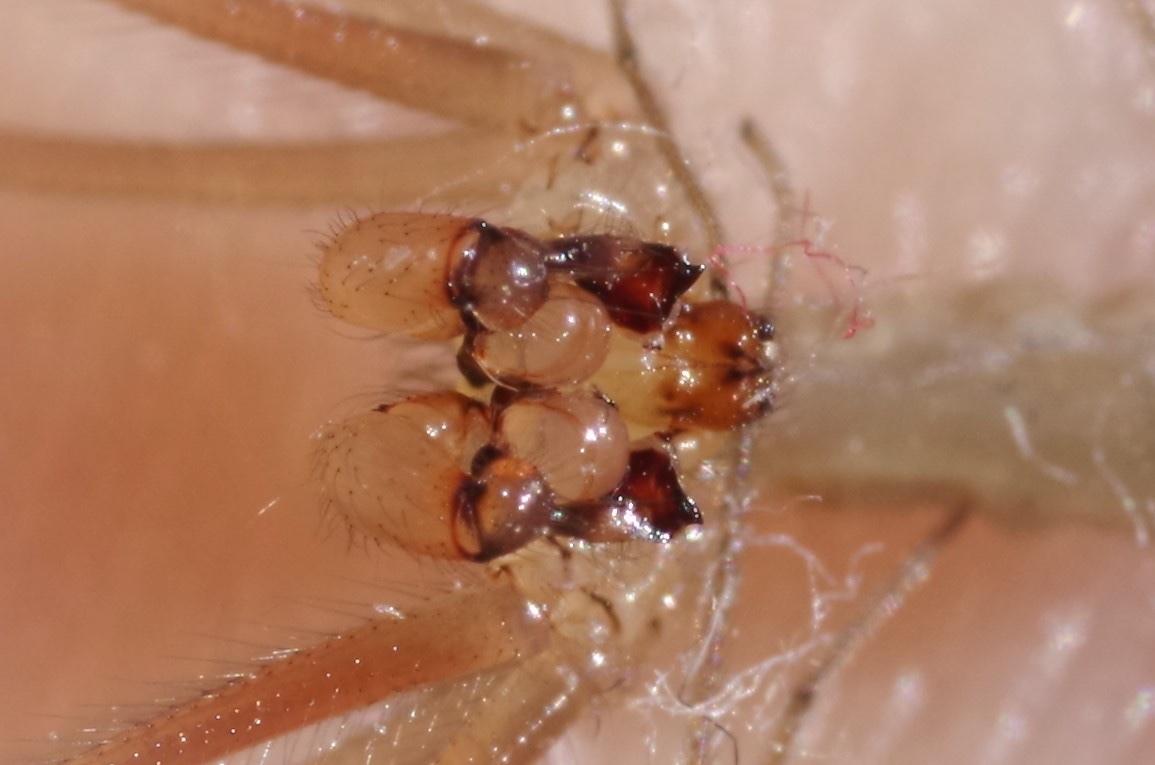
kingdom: Animalia
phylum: Arthropoda
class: Arachnida
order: Araneae
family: Pholcidae
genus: Pholcus
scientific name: Pholcus phalangioides
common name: Longbodied cellar spider
